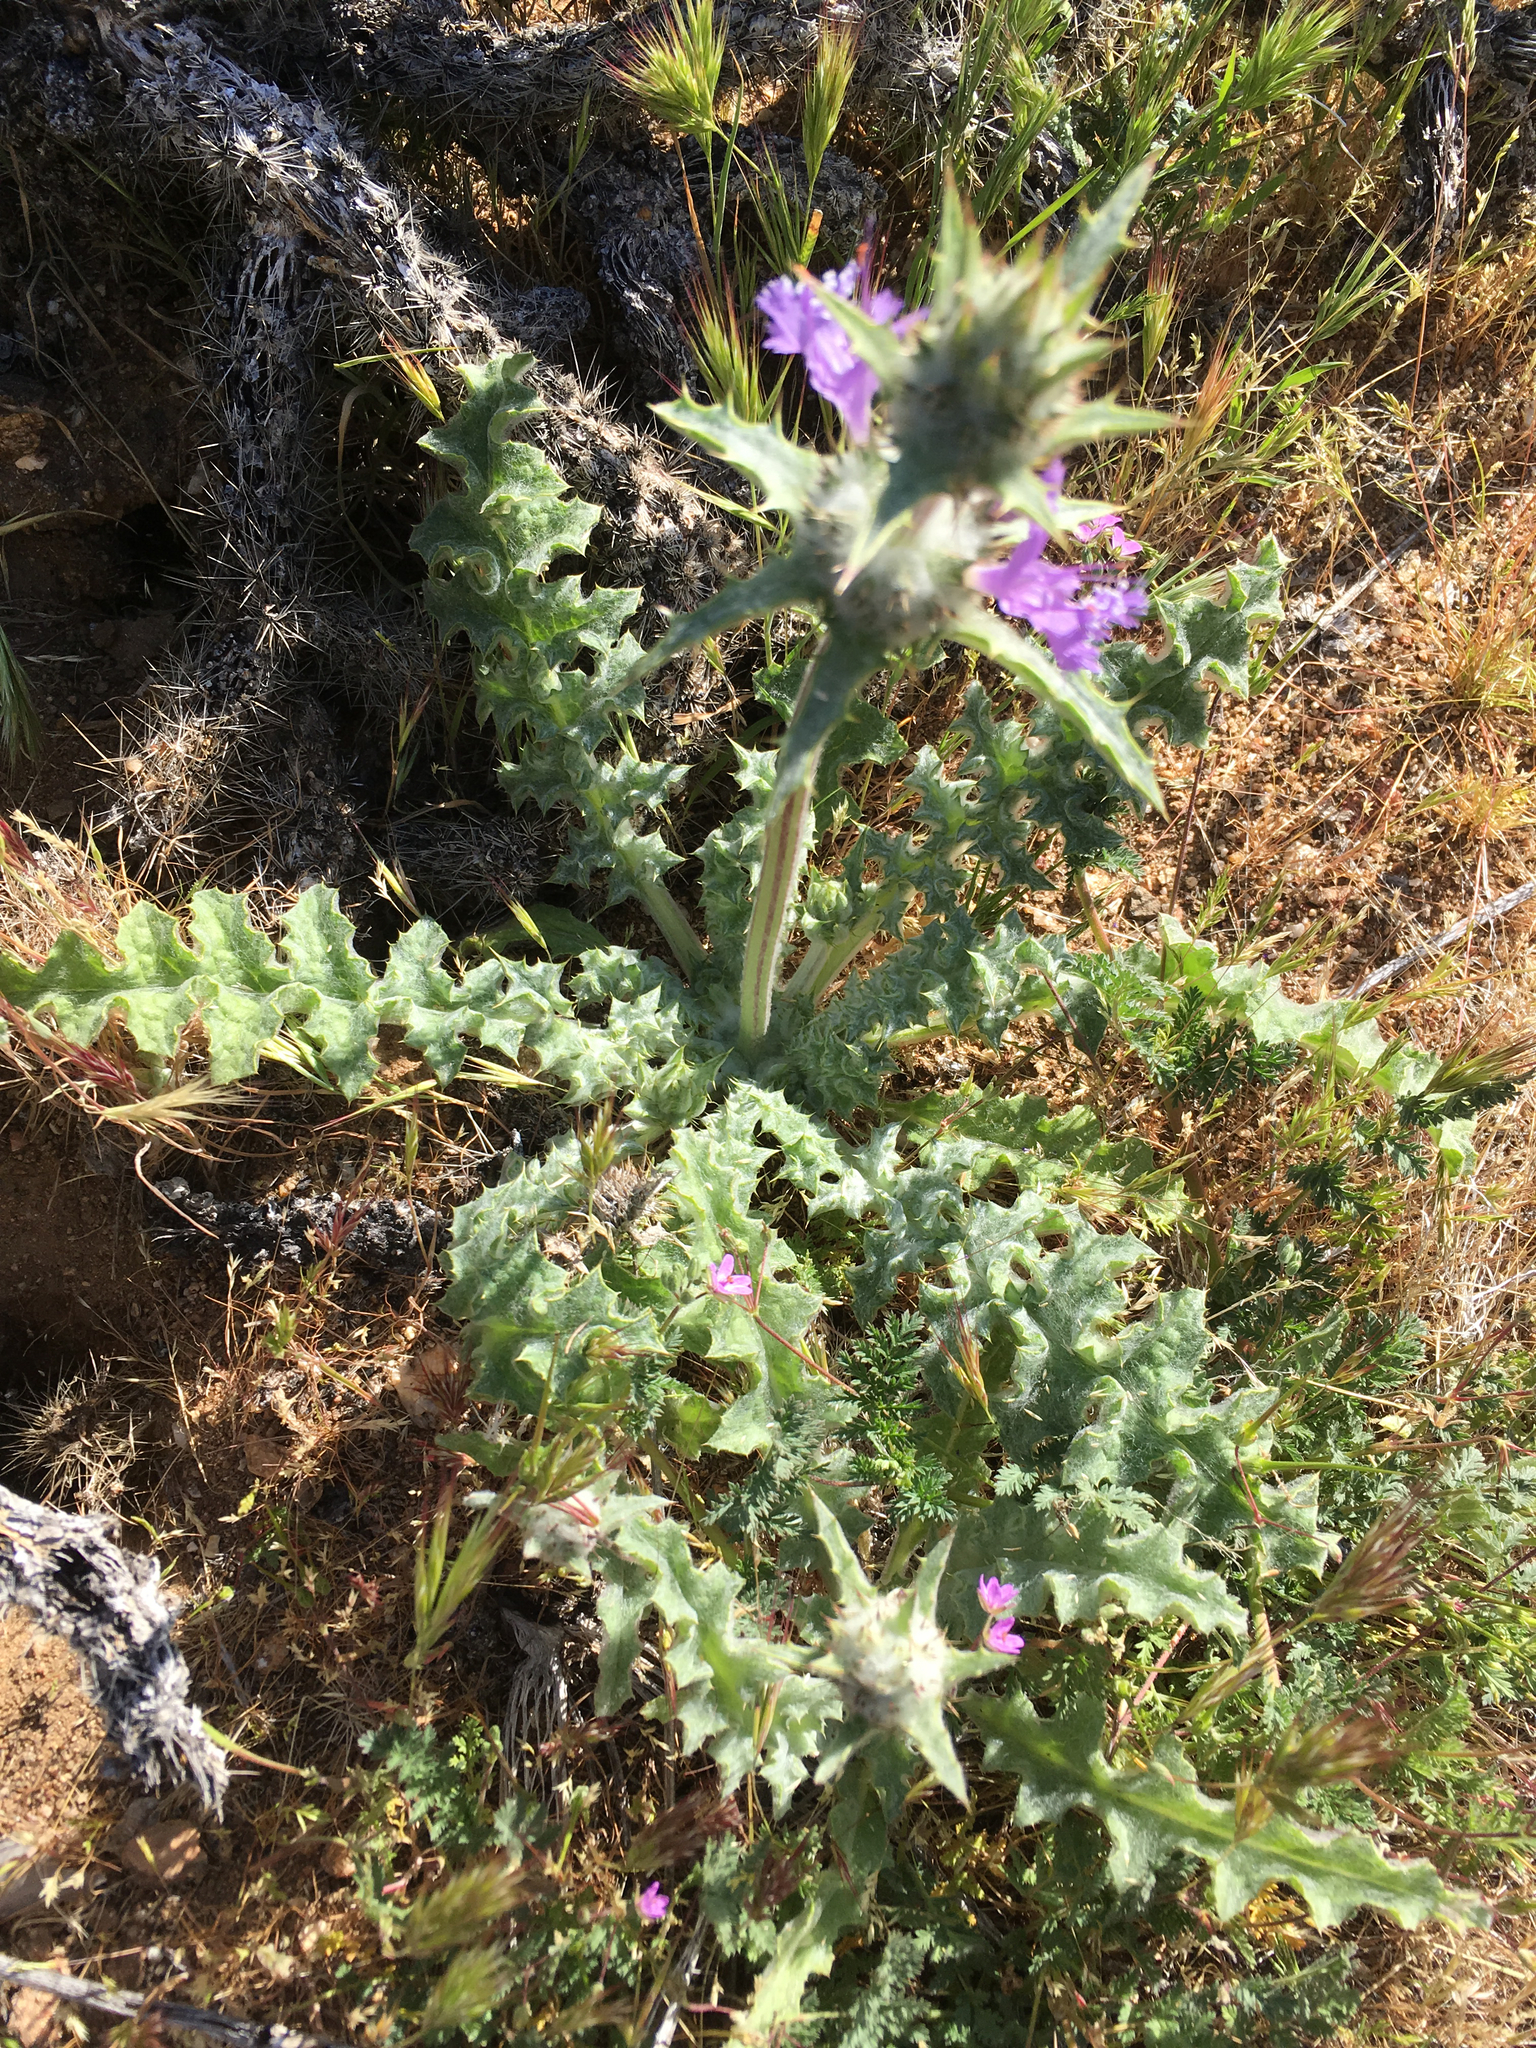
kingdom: Plantae
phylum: Tracheophyta
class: Magnoliopsida
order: Lamiales
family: Lamiaceae
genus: Salvia
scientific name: Salvia carduacea
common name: Thistle sage
